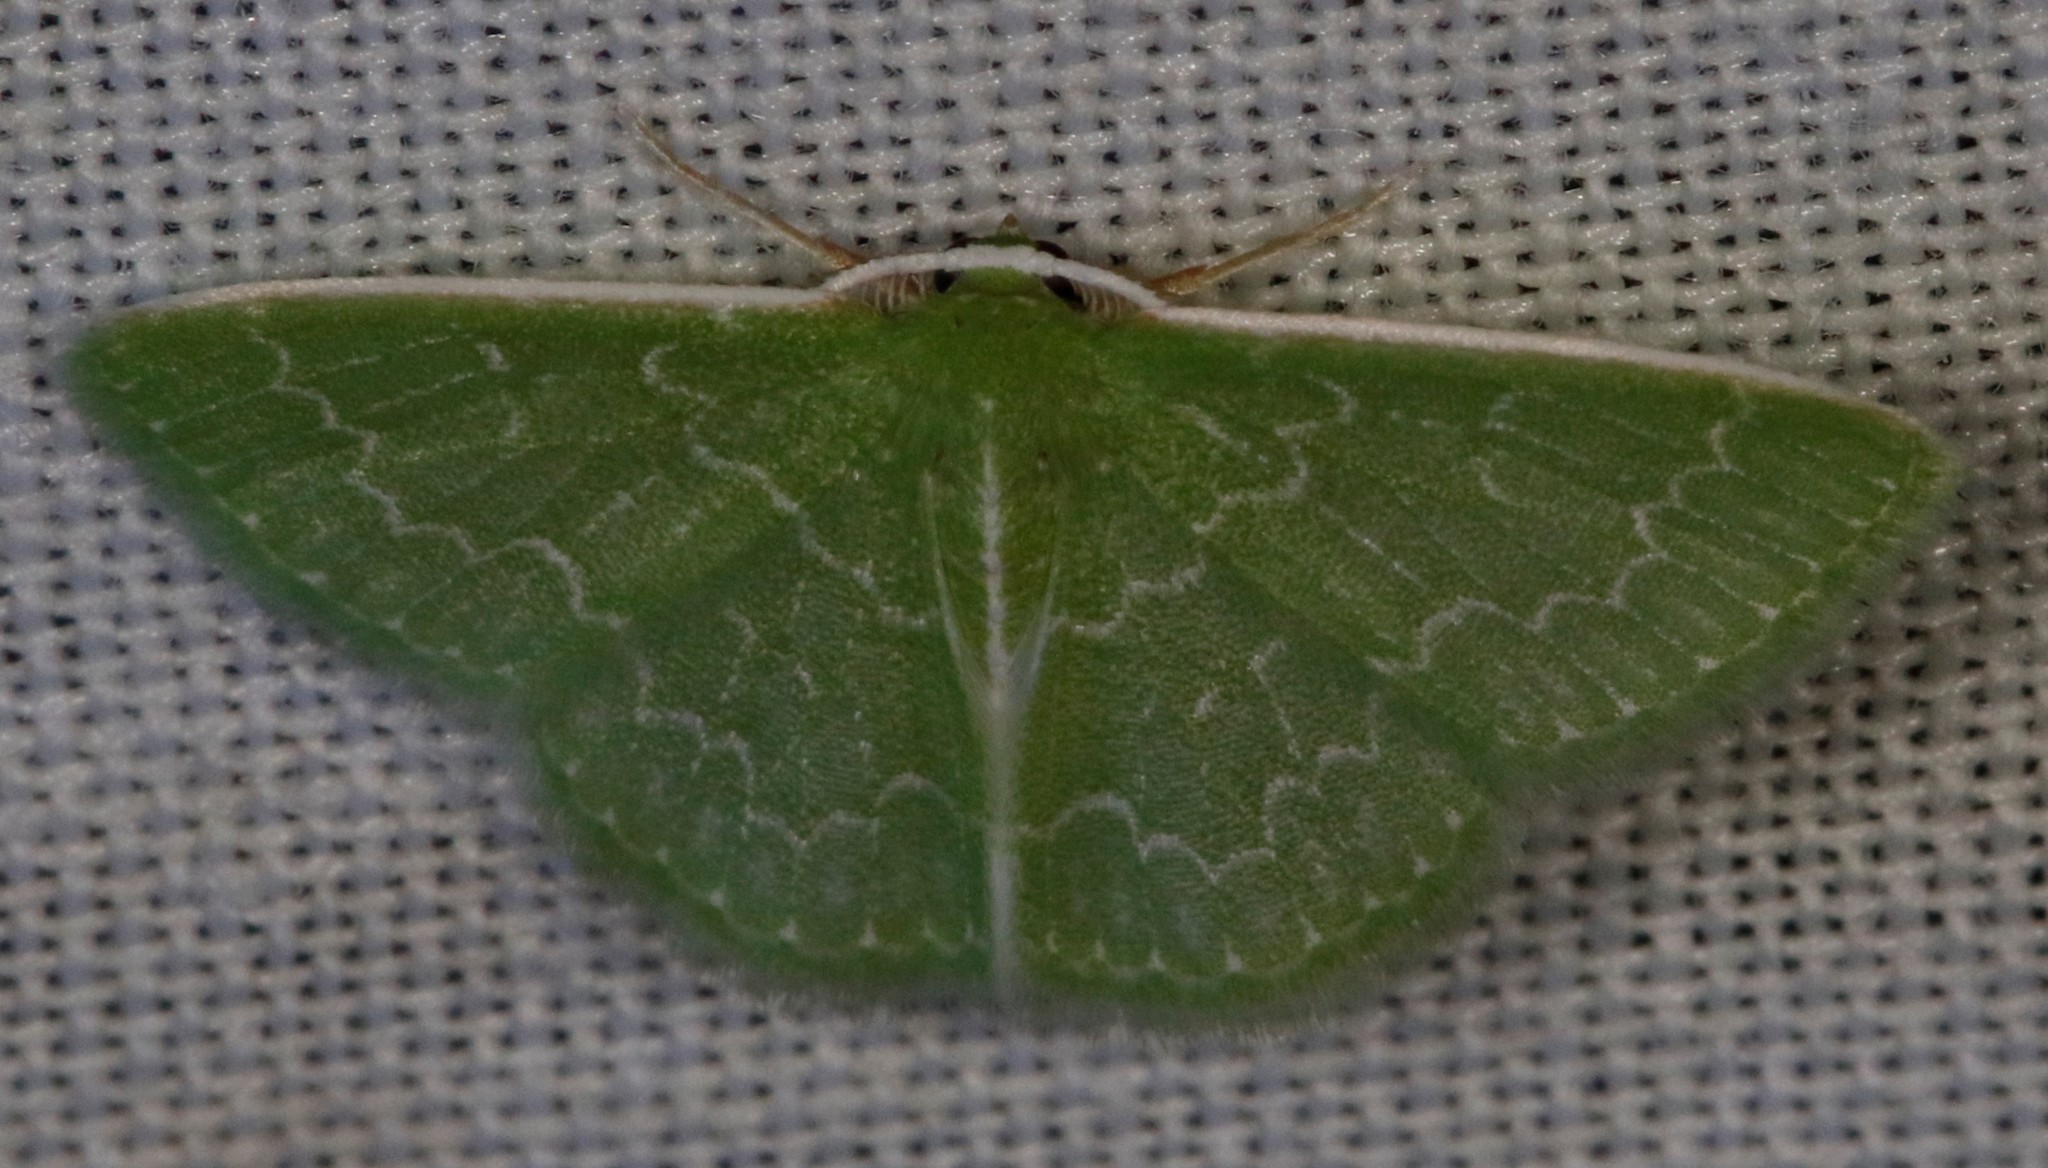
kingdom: Animalia
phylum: Arthropoda
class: Insecta
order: Lepidoptera
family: Geometridae
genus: Synchlora
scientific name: Synchlora frondaria
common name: Southern emerald
